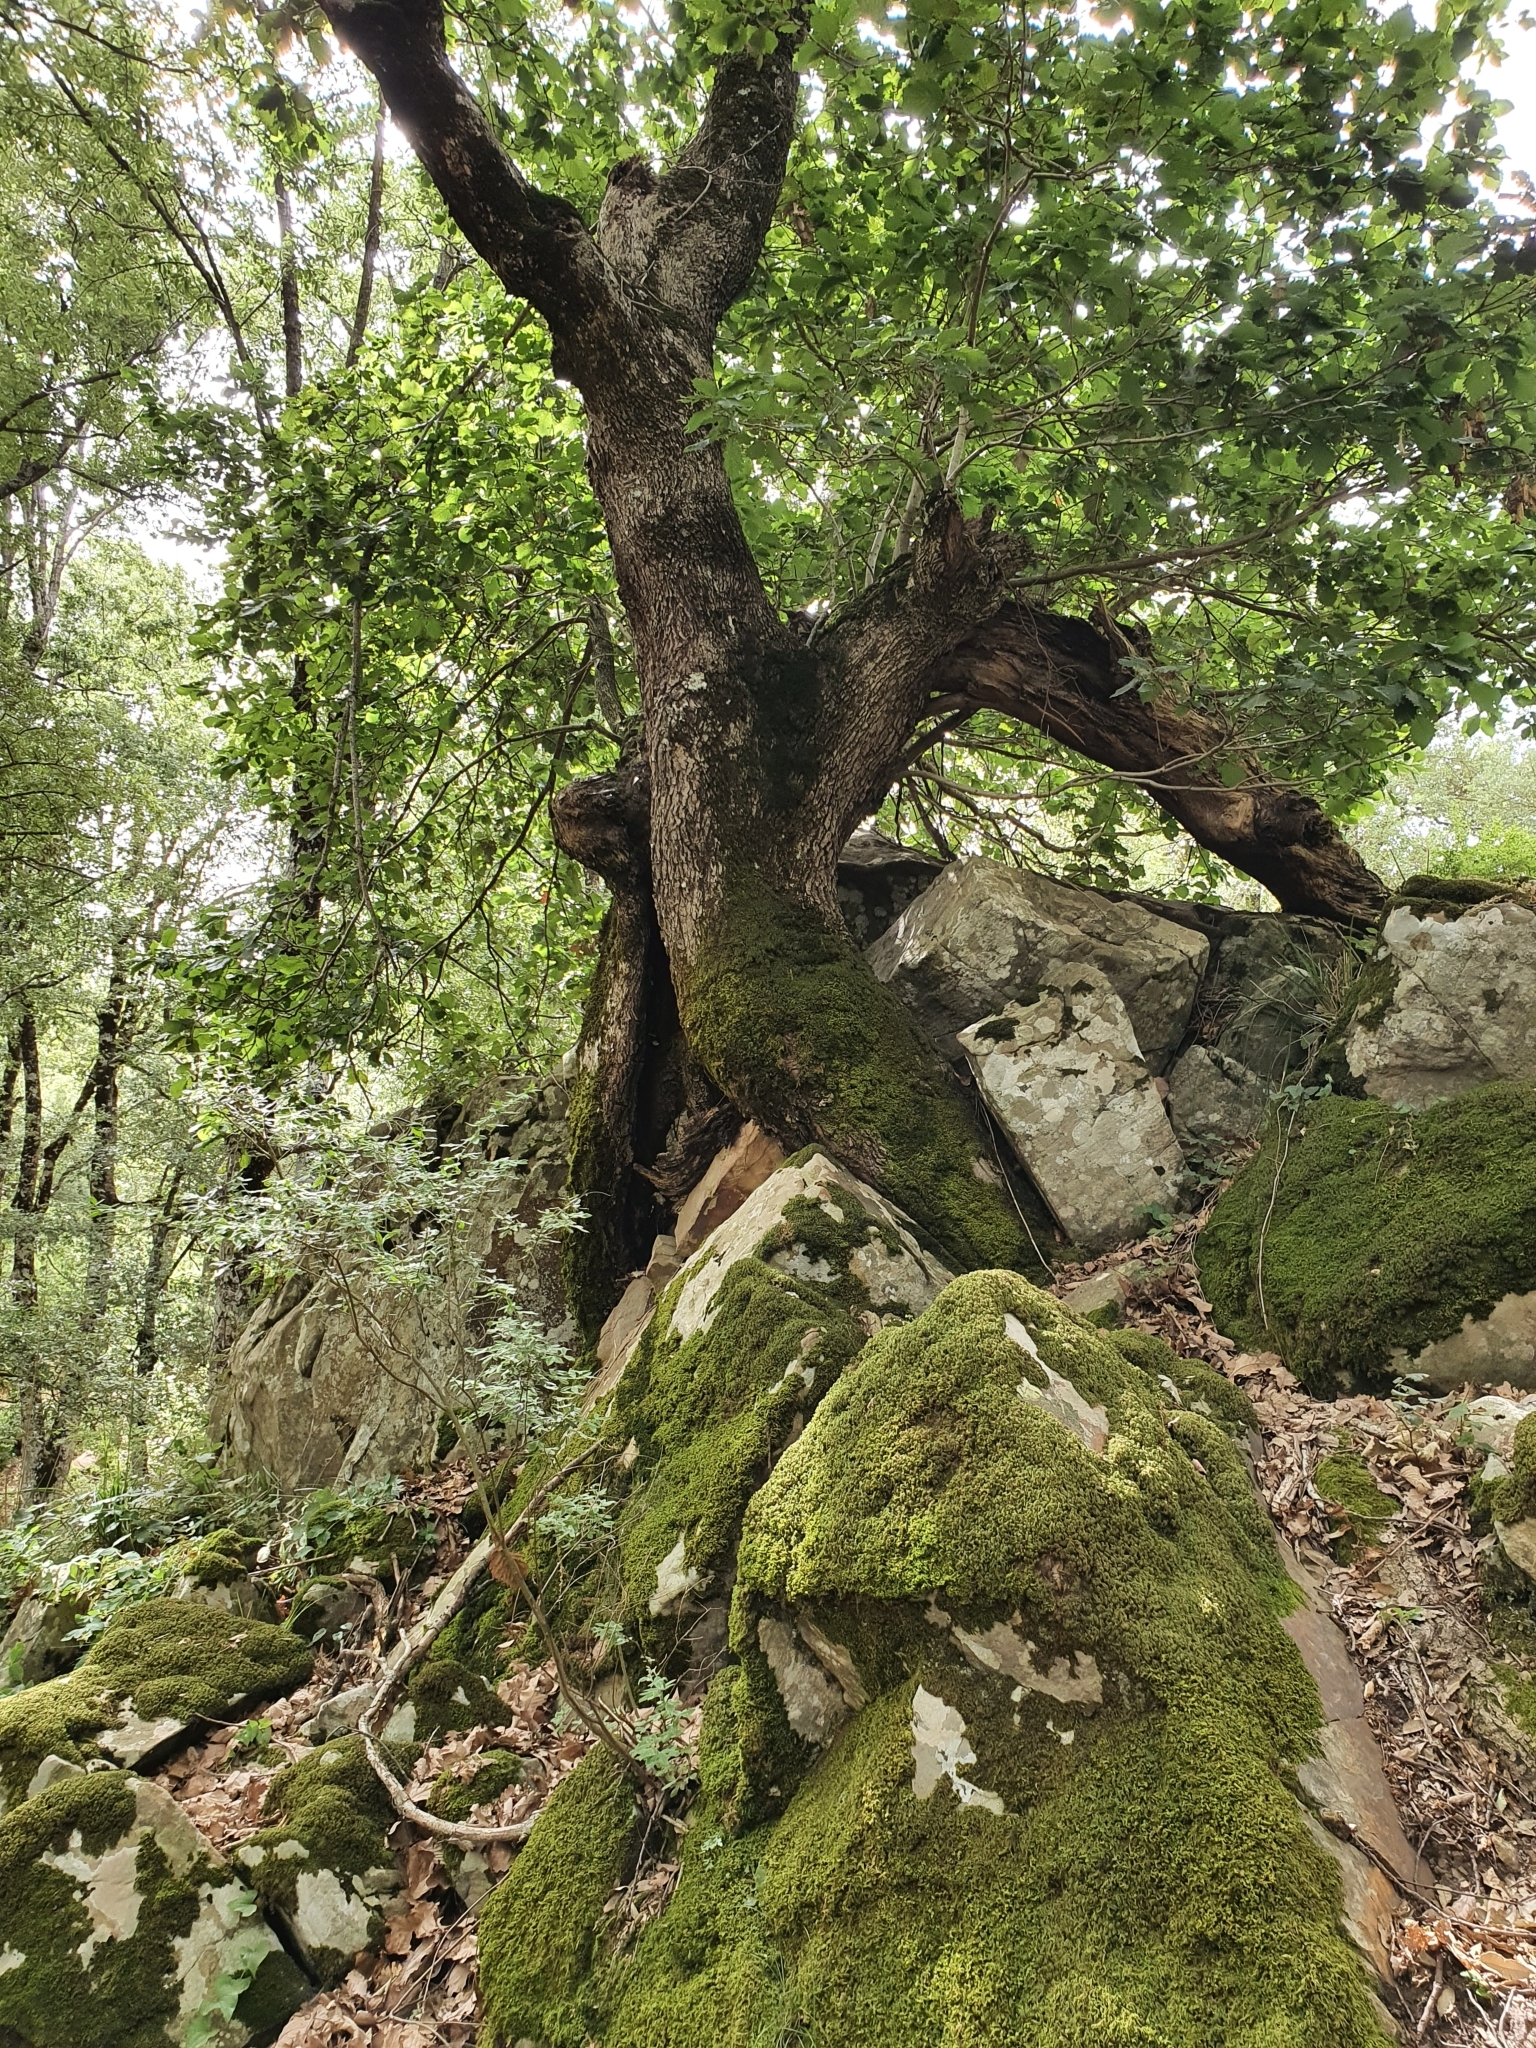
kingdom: Plantae
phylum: Tracheophyta
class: Magnoliopsida
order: Fagales
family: Fagaceae
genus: Quercus
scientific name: Quercus canariensis
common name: Algerian oak
